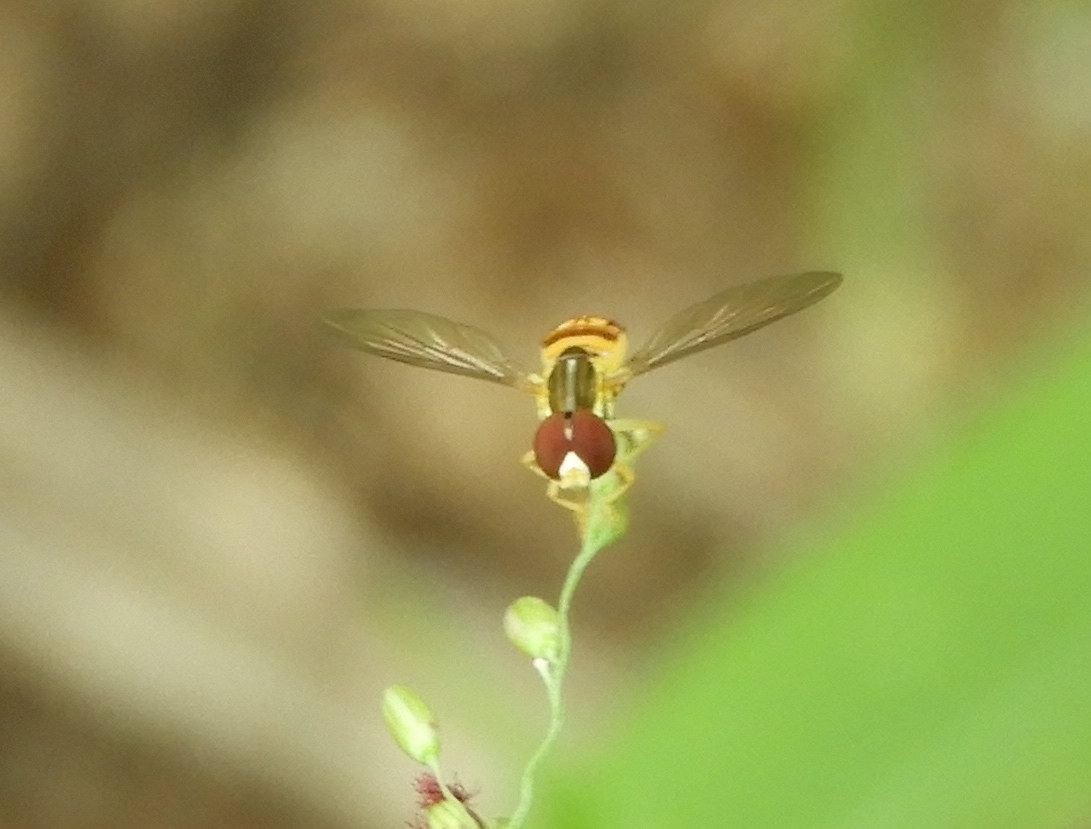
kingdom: Animalia
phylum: Arthropoda
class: Insecta
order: Diptera
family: Syrphidae
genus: Toxomerus
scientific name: Toxomerus
